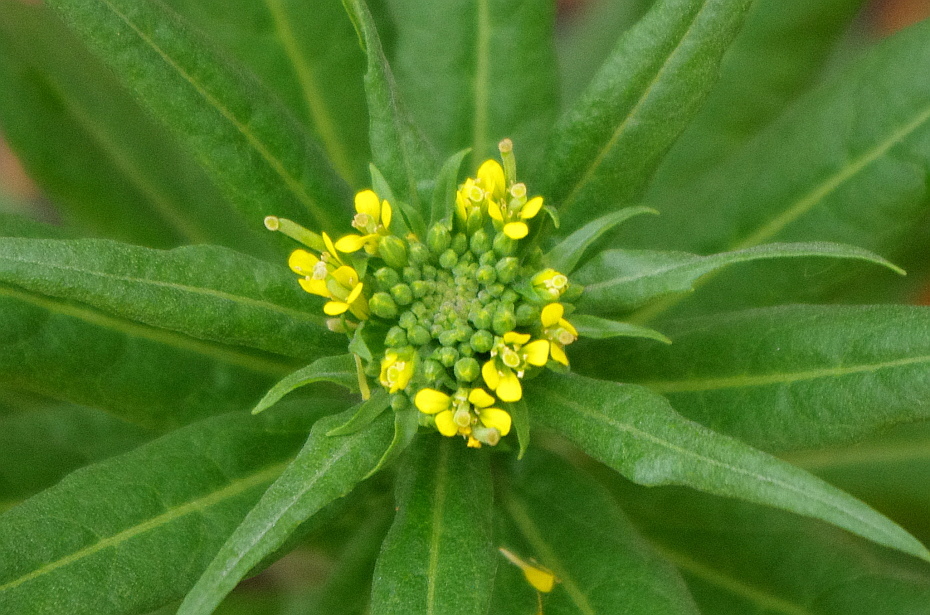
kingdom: Plantae
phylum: Tracheophyta
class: Magnoliopsida
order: Brassicales
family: Brassicaceae
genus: Erysimum
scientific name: Erysimum cheiranthoides
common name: Treacle mustard
